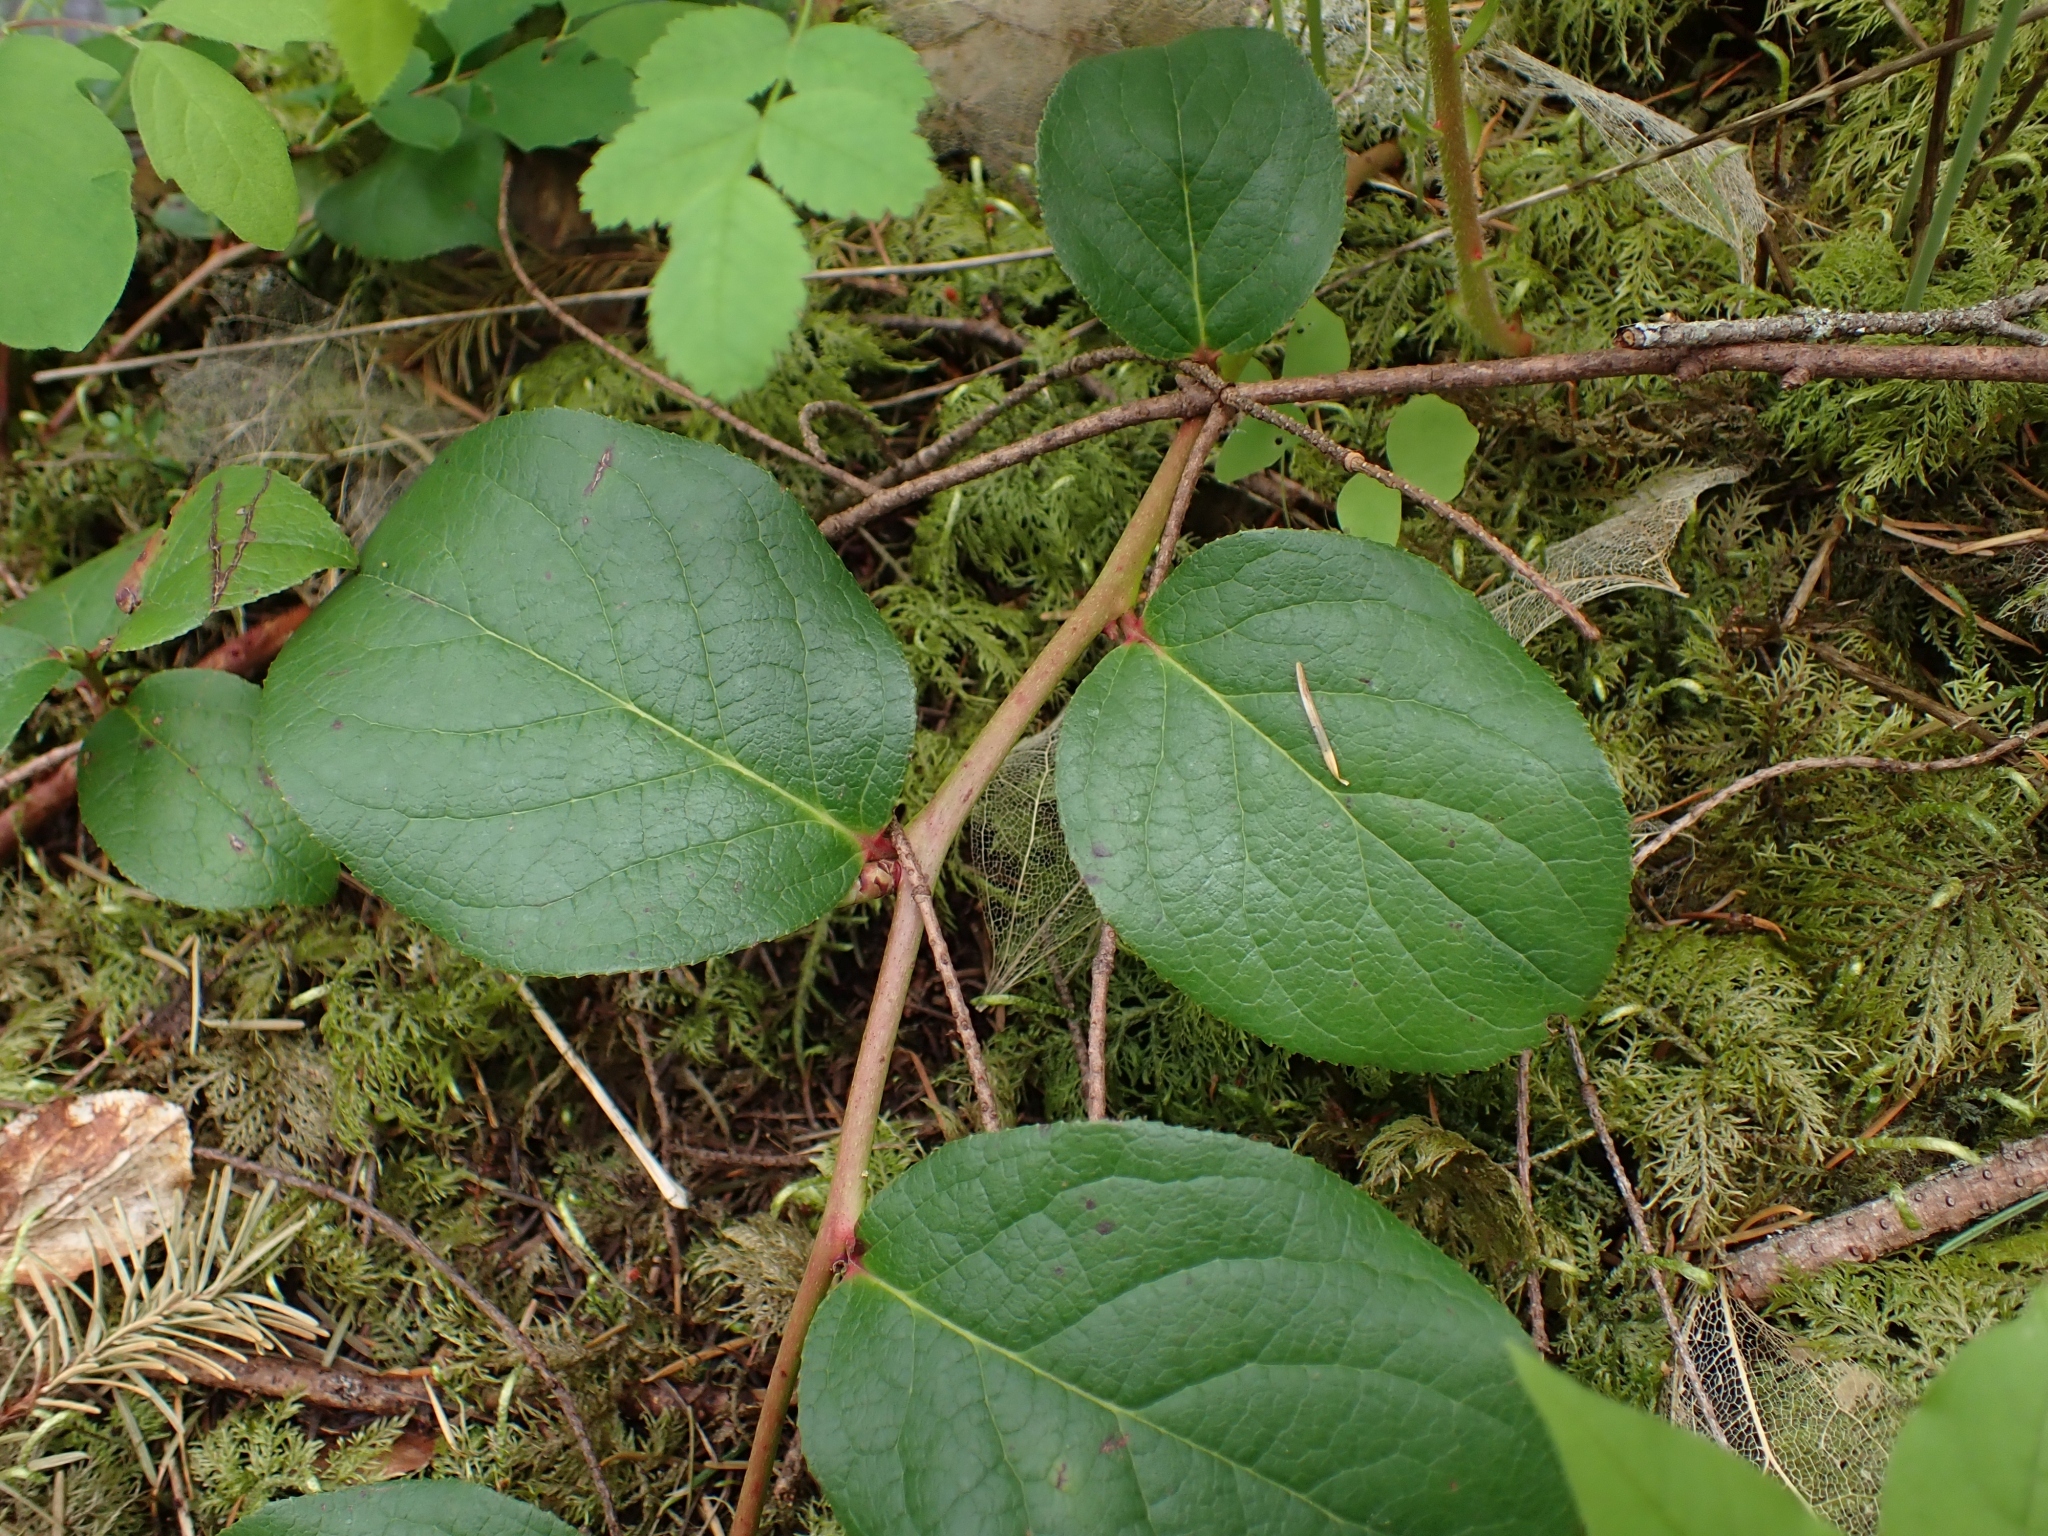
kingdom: Plantae
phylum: Tracheophyta
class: Magnoliopsida
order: Ericales
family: Ericaceae
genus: Gaultheria
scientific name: Gaultheria shallon
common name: Shallon
